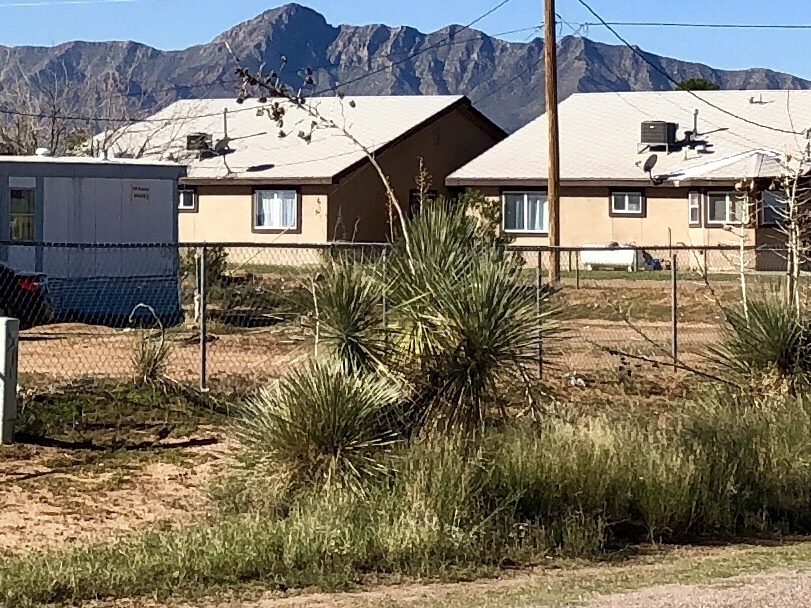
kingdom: Plantae
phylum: Tracheophyta
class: Liliopsida
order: Asparagales
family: Asparagaceae
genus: Yucca
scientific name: Yucca elata
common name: Palmella
